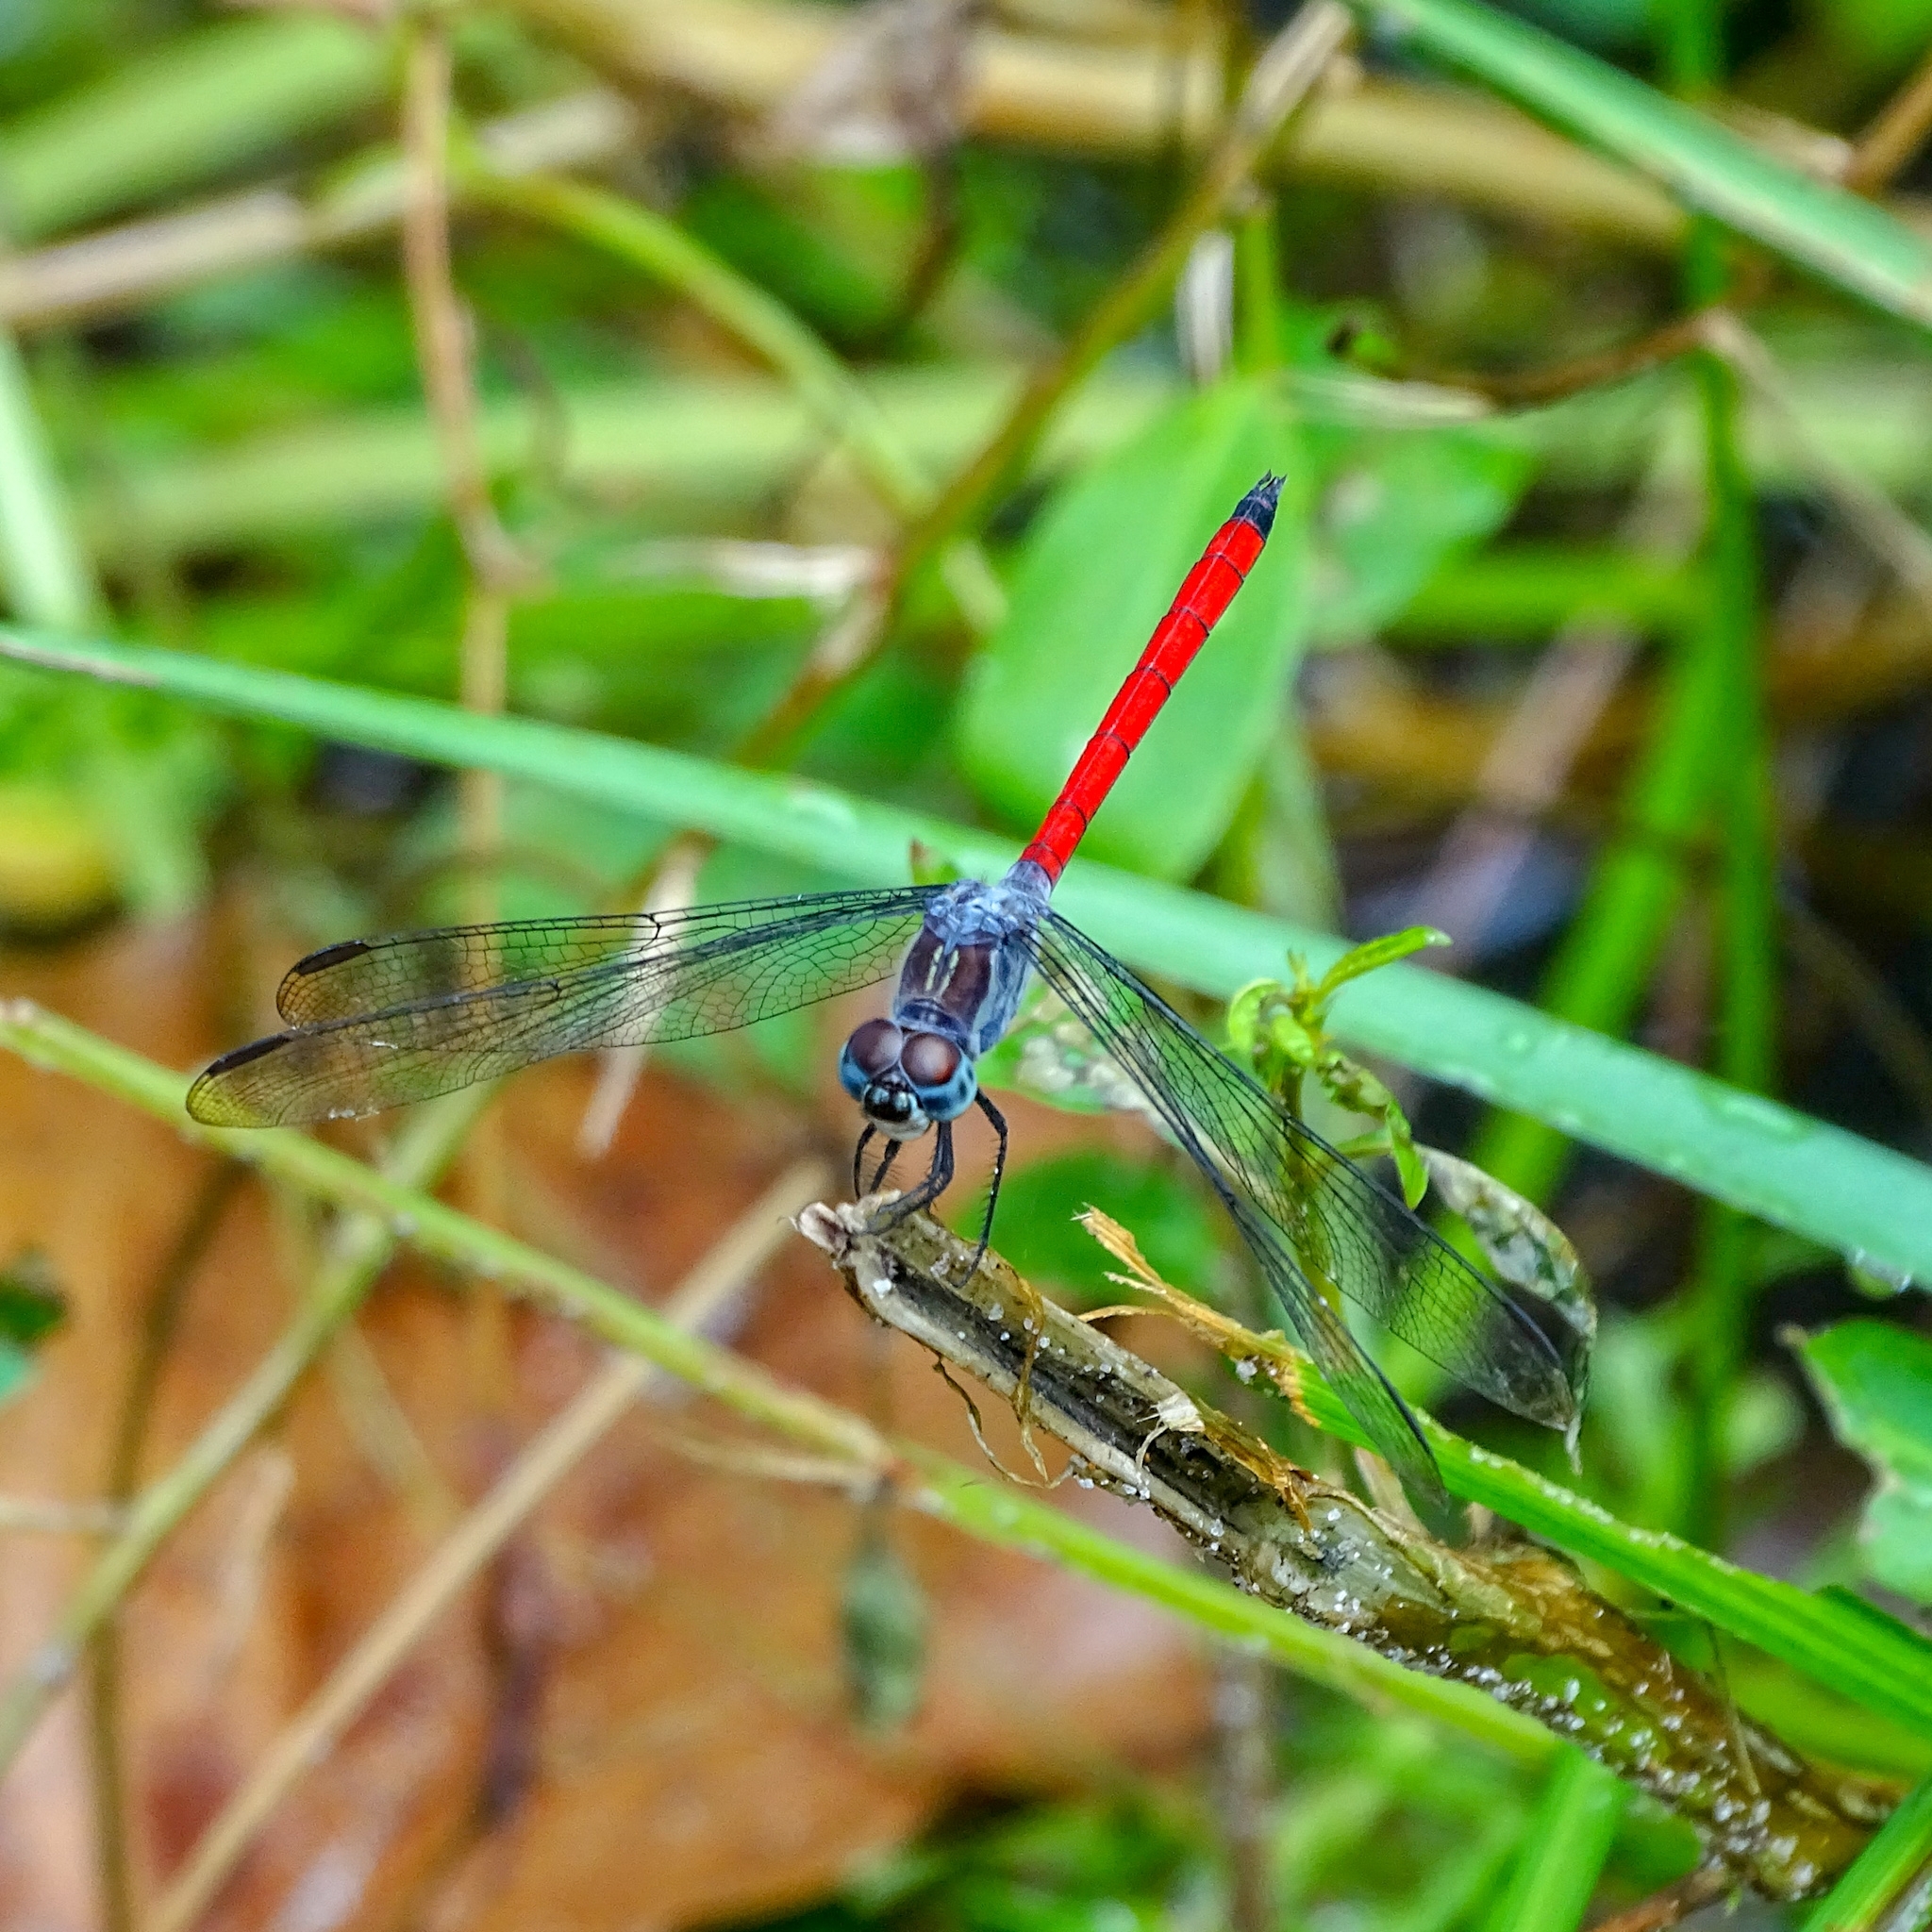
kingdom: Animalia
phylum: Arthropoda
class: Insecta
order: Odonata
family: Libellulidae
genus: Lathrecista
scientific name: Lathrecista asiatica
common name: Scarlet grenadier
